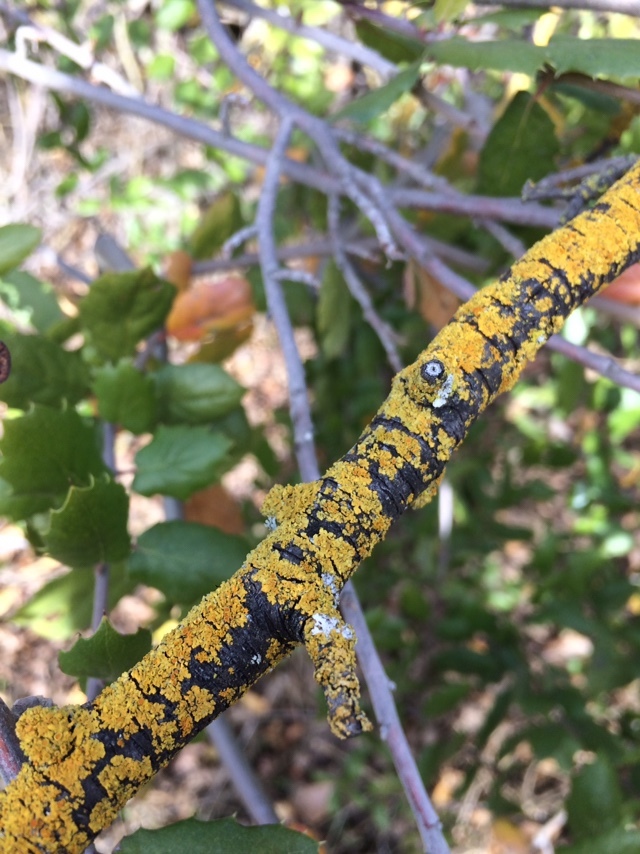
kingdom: Fungi
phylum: Ascomycota
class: Lecanoromycetes
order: Teloschistales
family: Teloschistaceae
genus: Xanthoria
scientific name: Xanthoria parietina
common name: Common orange lichen
